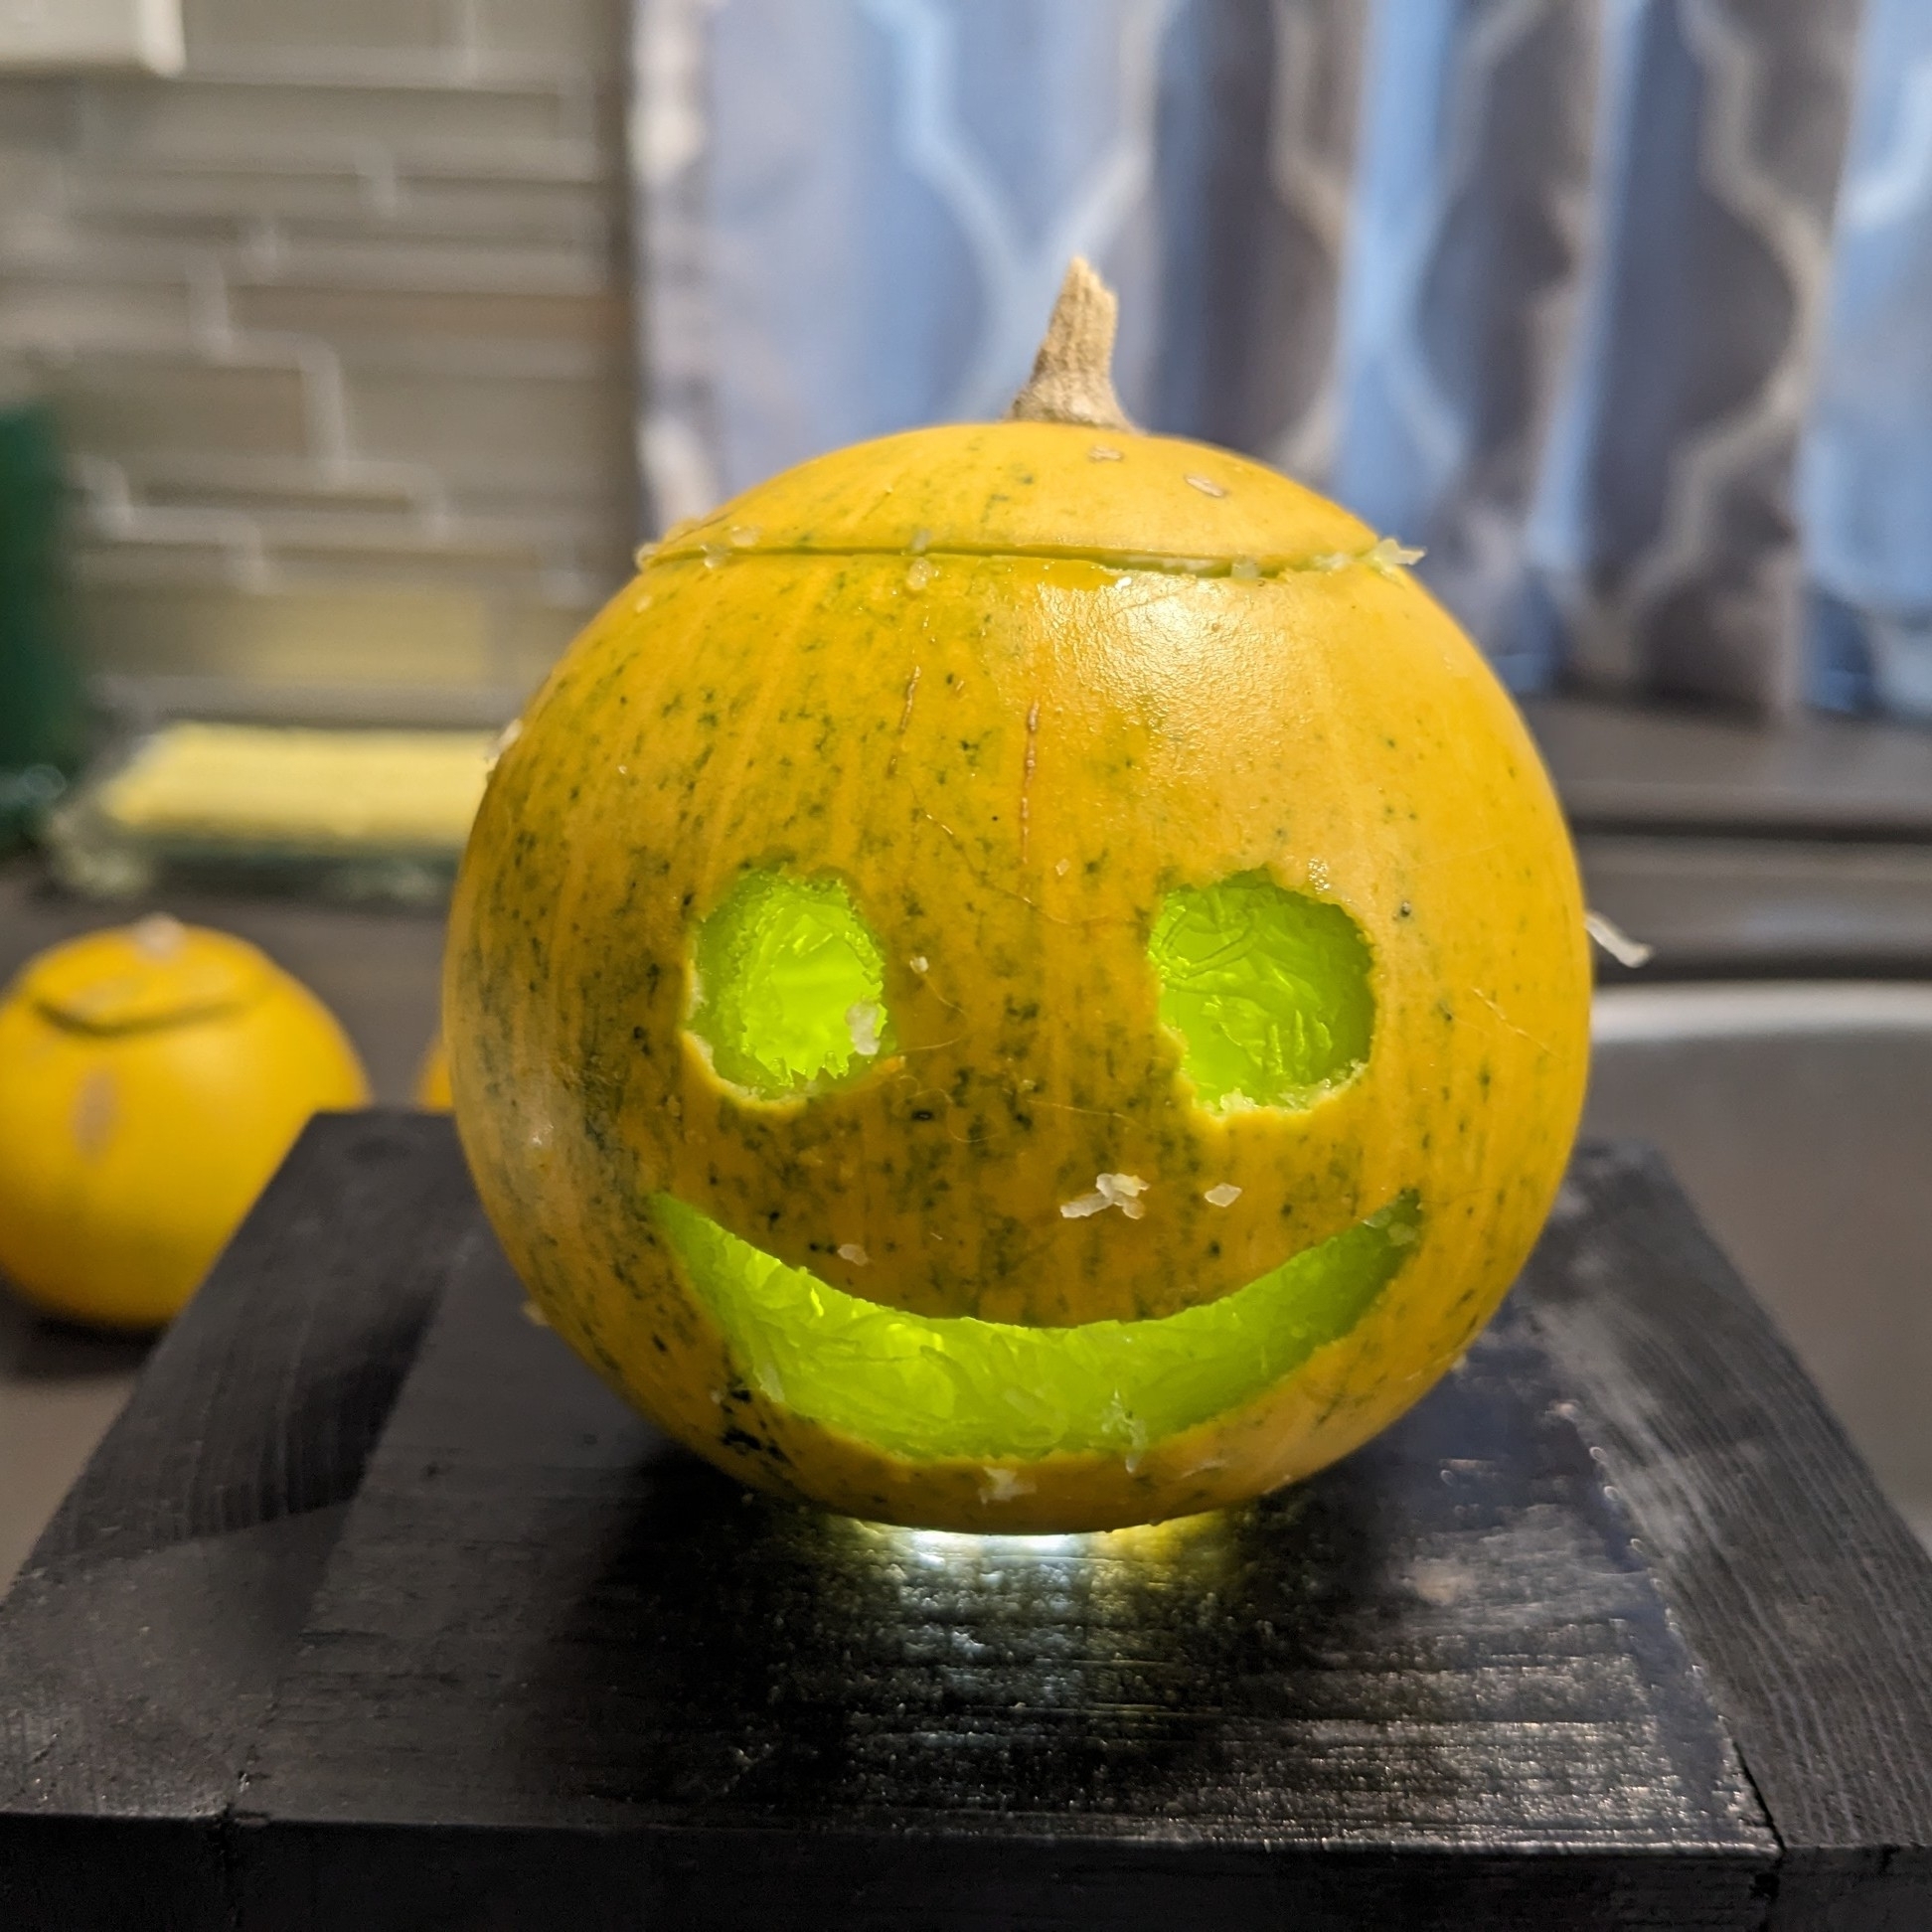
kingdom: Plantae
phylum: Tracheophyta
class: Magnoliopsida
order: Cucurbitales
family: Cucurbitaceae
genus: Cucurbita
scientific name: Cucurbita foetidissima
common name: Buffalo gourd
